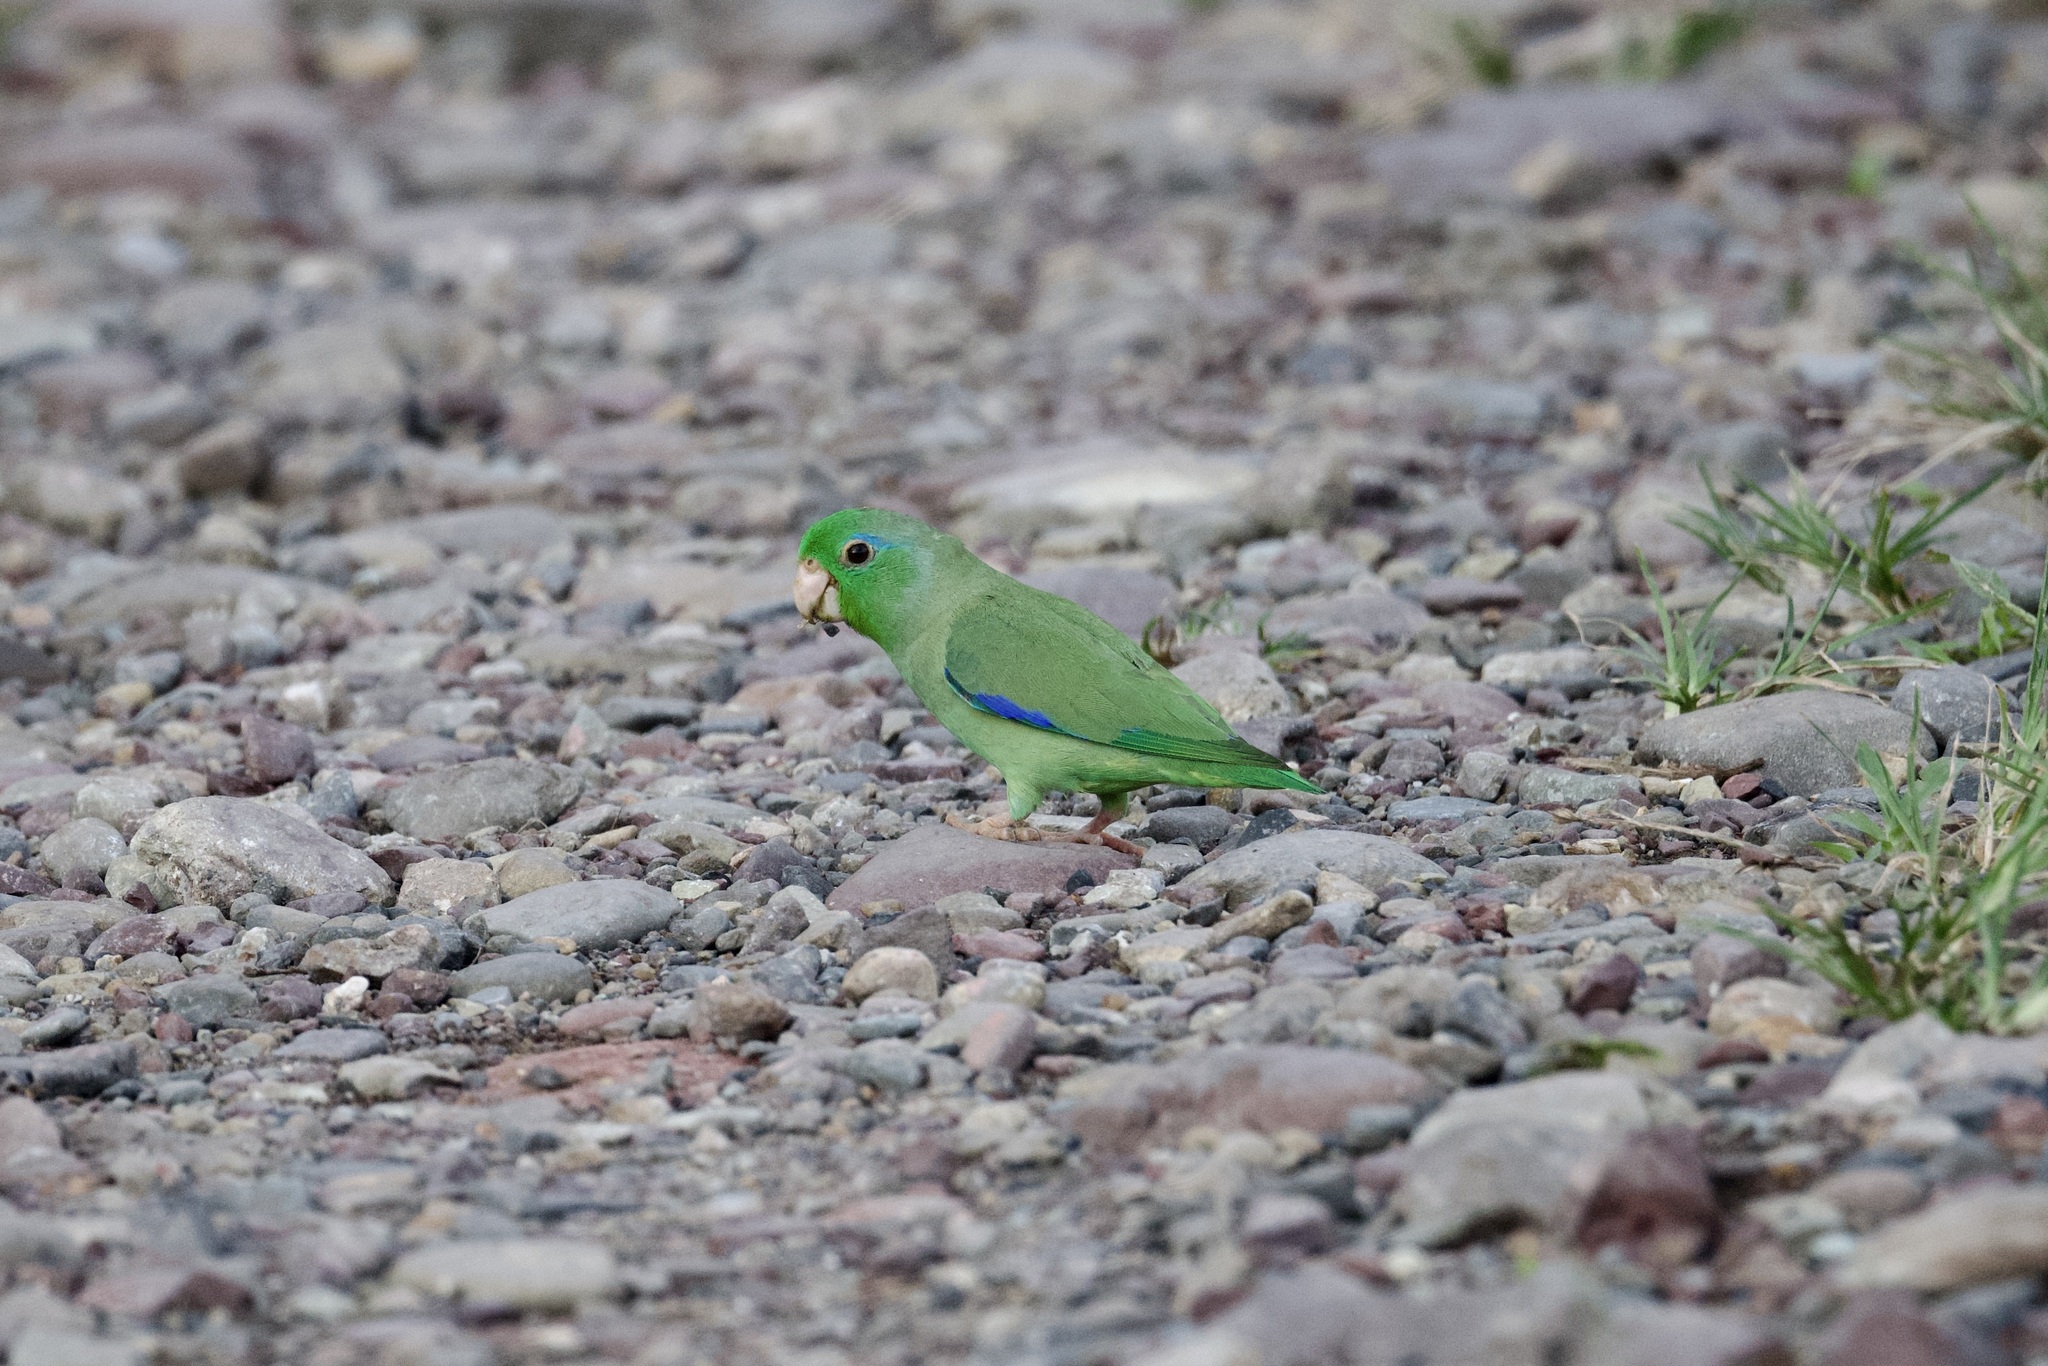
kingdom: Animalia
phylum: Chordata
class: Aves
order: Psittaciformes
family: Psittacidae
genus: Forpus
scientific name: Forpus conspicillatus
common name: Spectacled parrotlet
